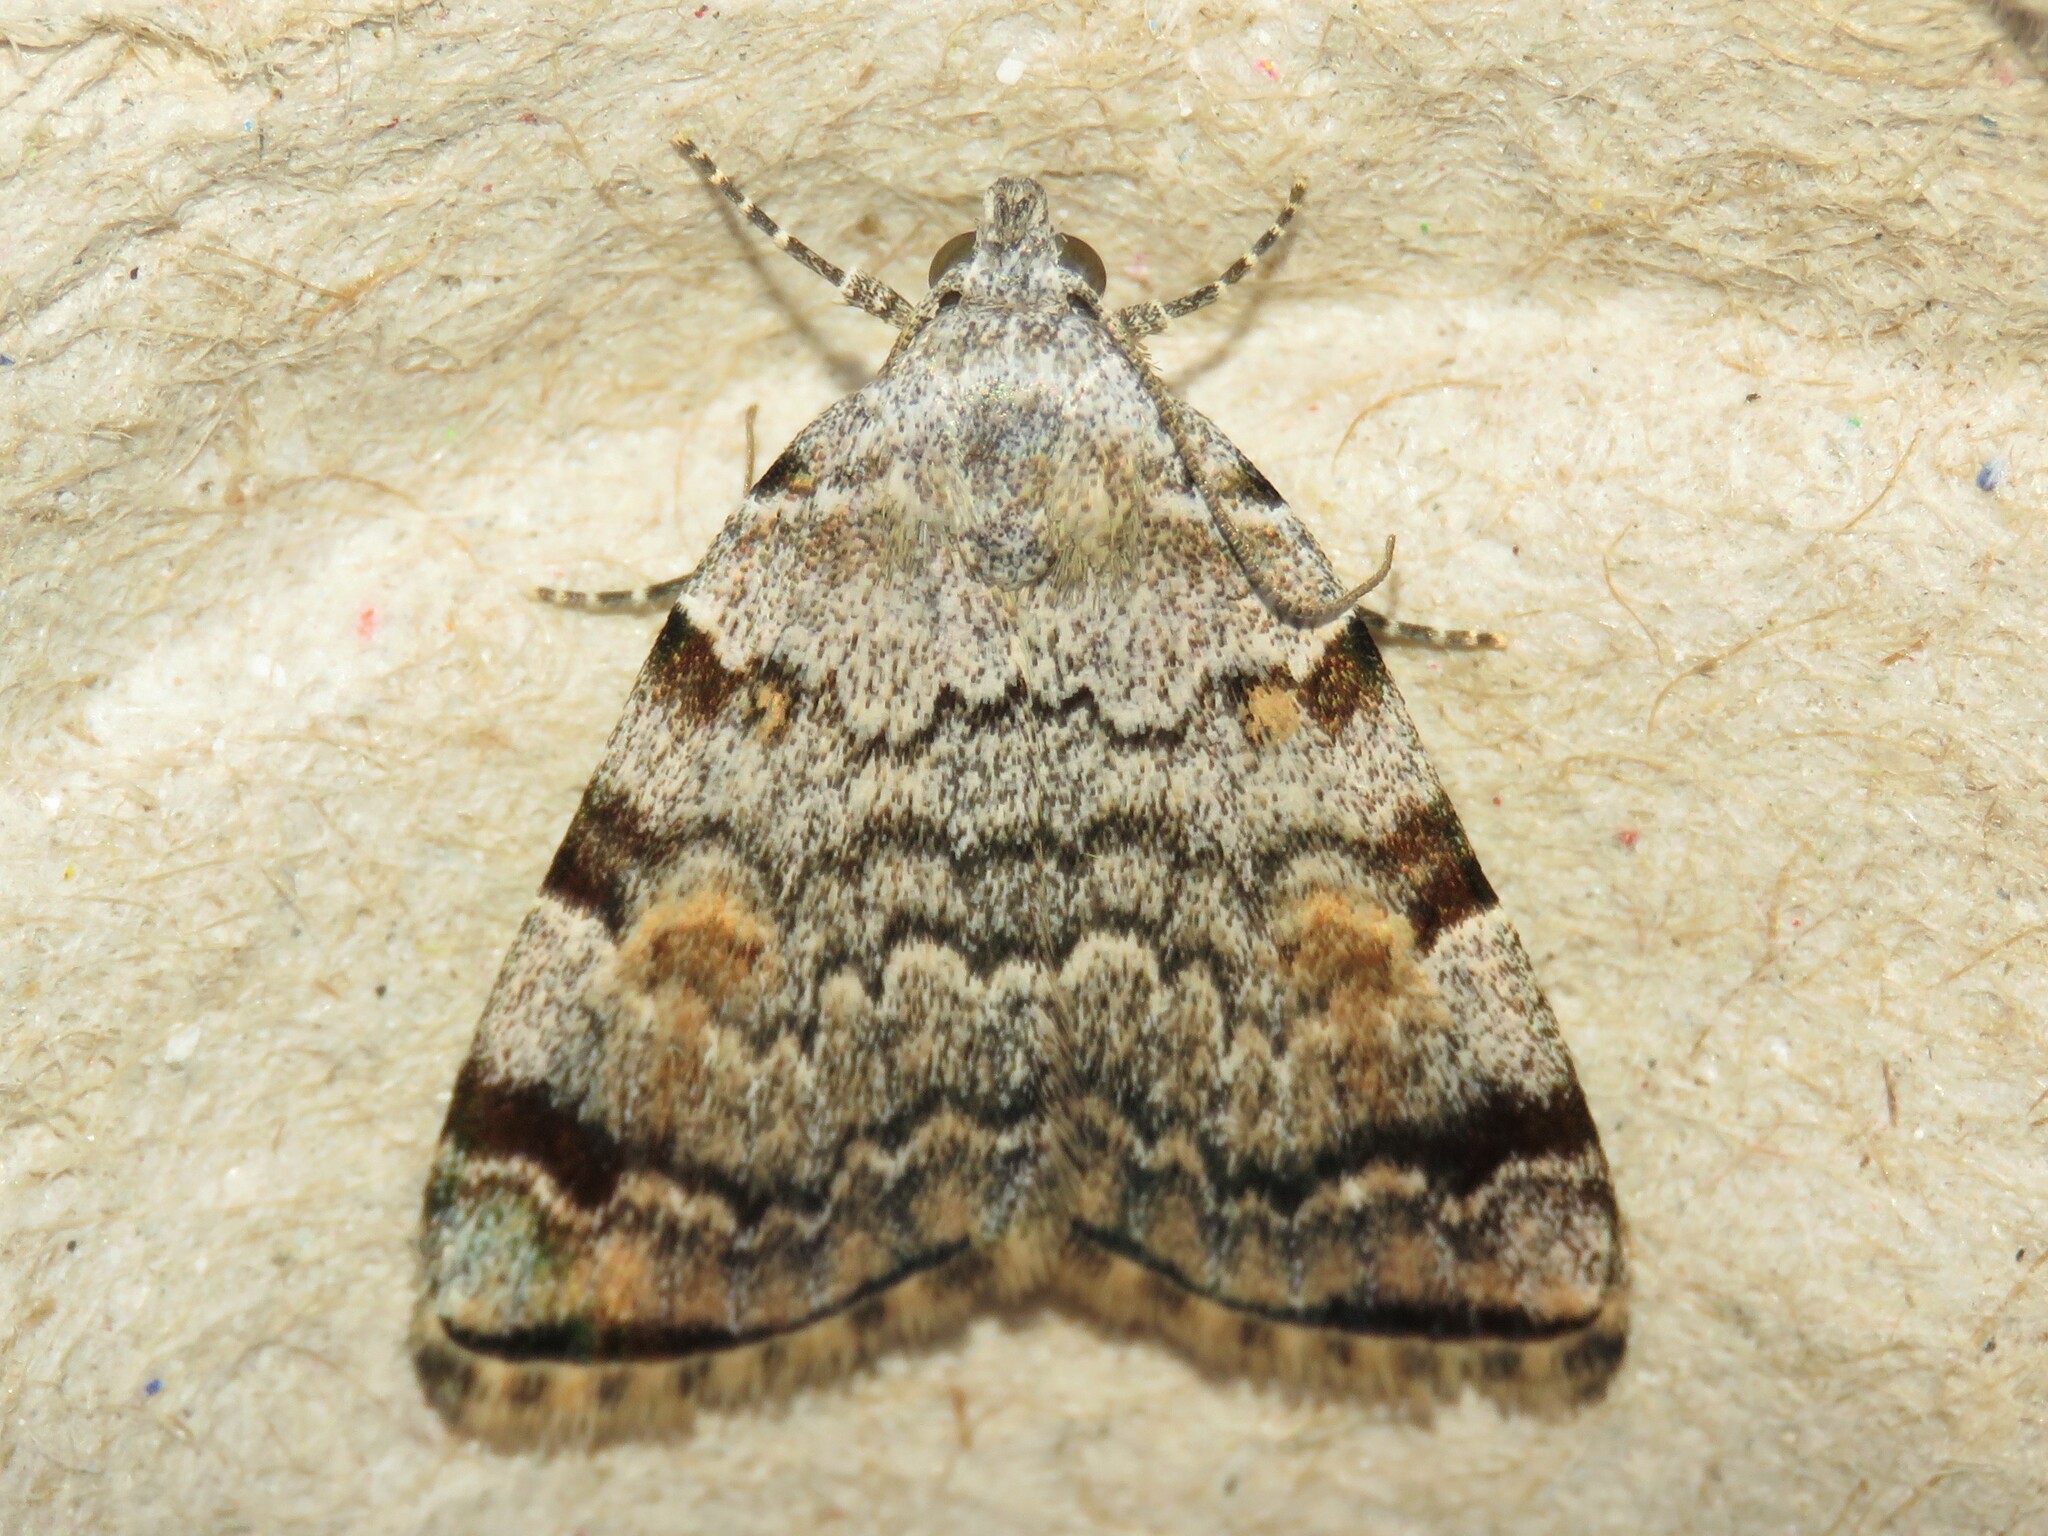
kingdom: Animalia
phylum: Arthropoda
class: Insecta
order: Lepidoptera
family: Erebidae
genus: Idia
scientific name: Idia americalis
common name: American idia moth
